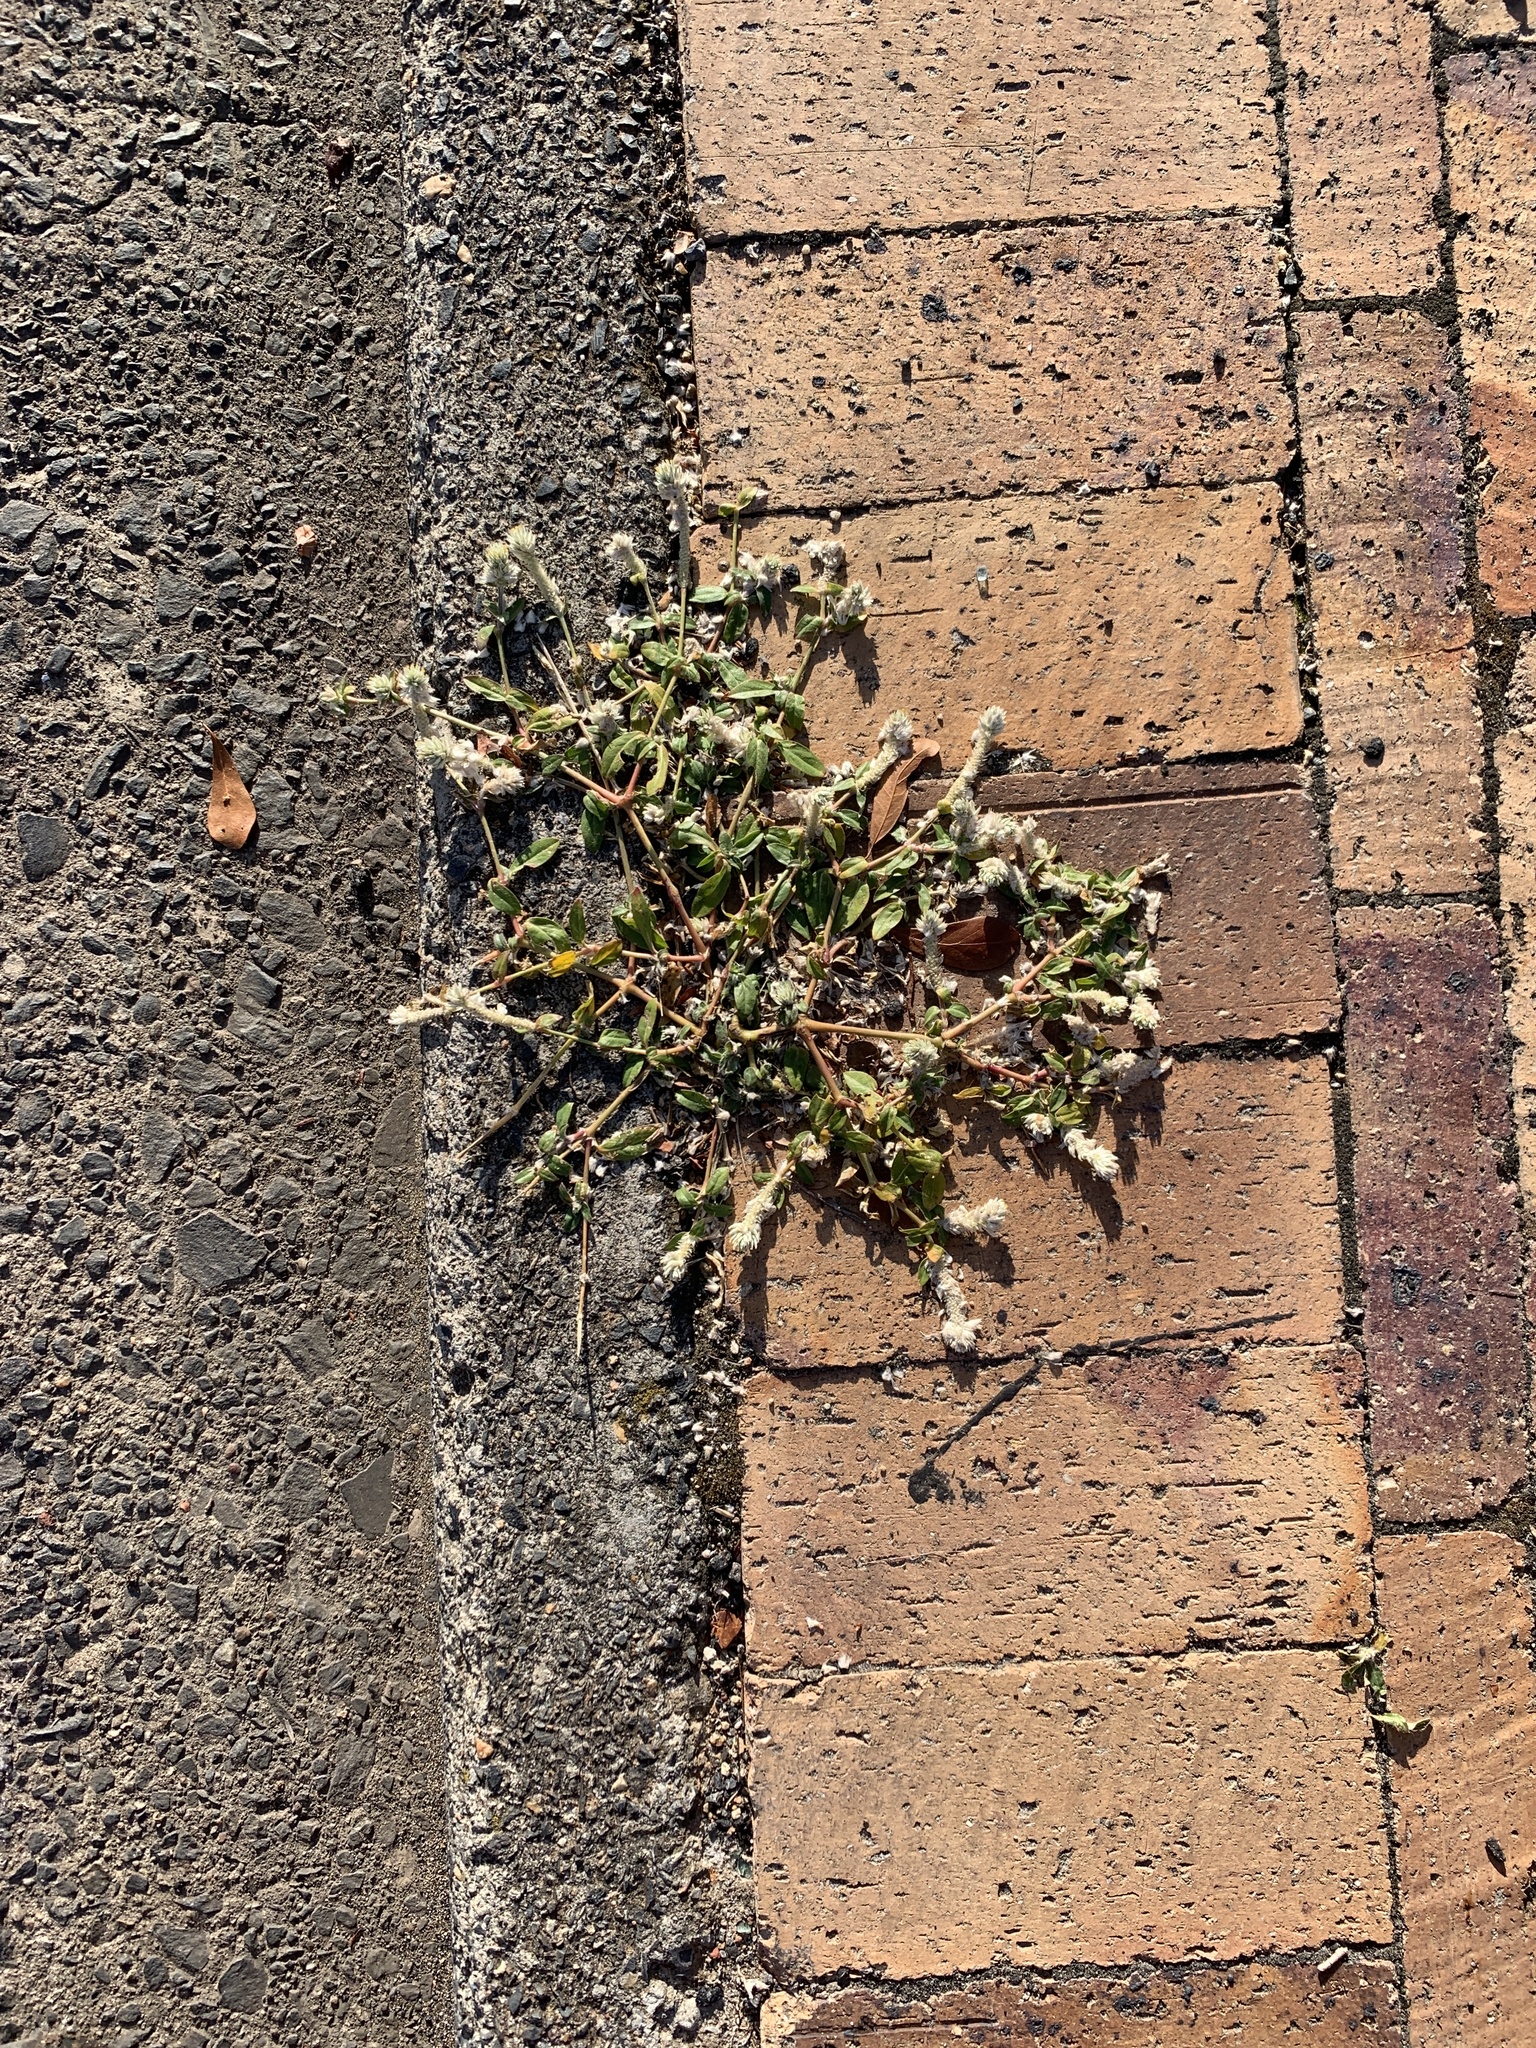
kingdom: Plantae
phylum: Tracheophyta
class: Magnoliopsida
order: Caryophyllales
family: Amaranthaceae
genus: Gomphrena
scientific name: Gomphrena celosioides
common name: Gomphrena-weed
